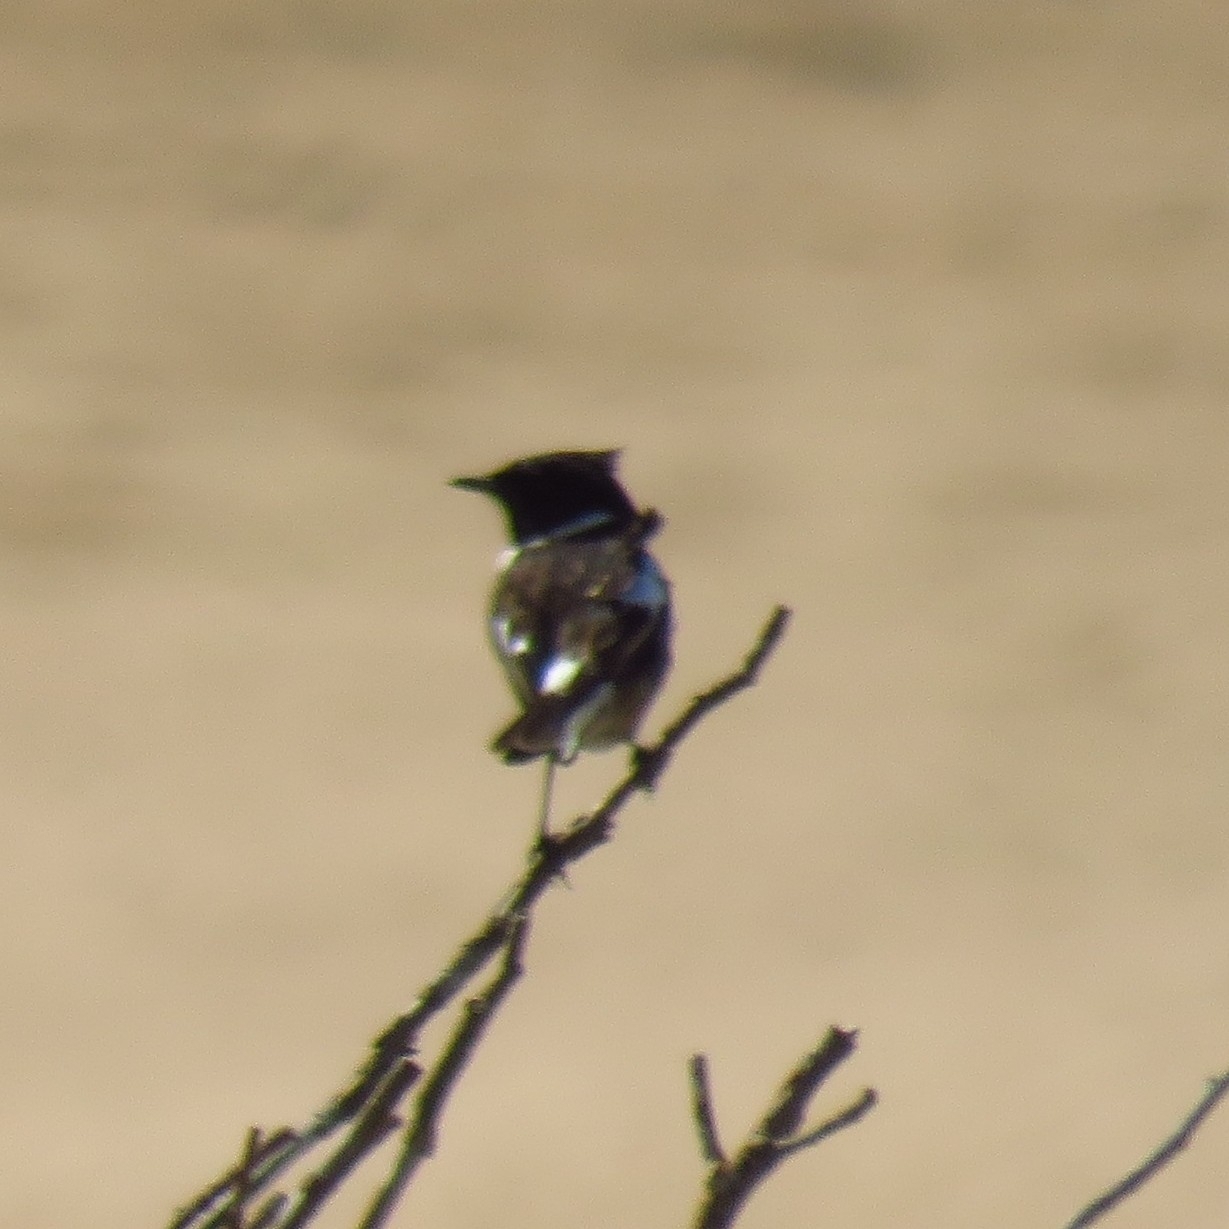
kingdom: Animalia
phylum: Chordata
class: Aves
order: Passeriformes
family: Muscicapidae
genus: Saxicola
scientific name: Saxicola rubicola
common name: European stonechat
